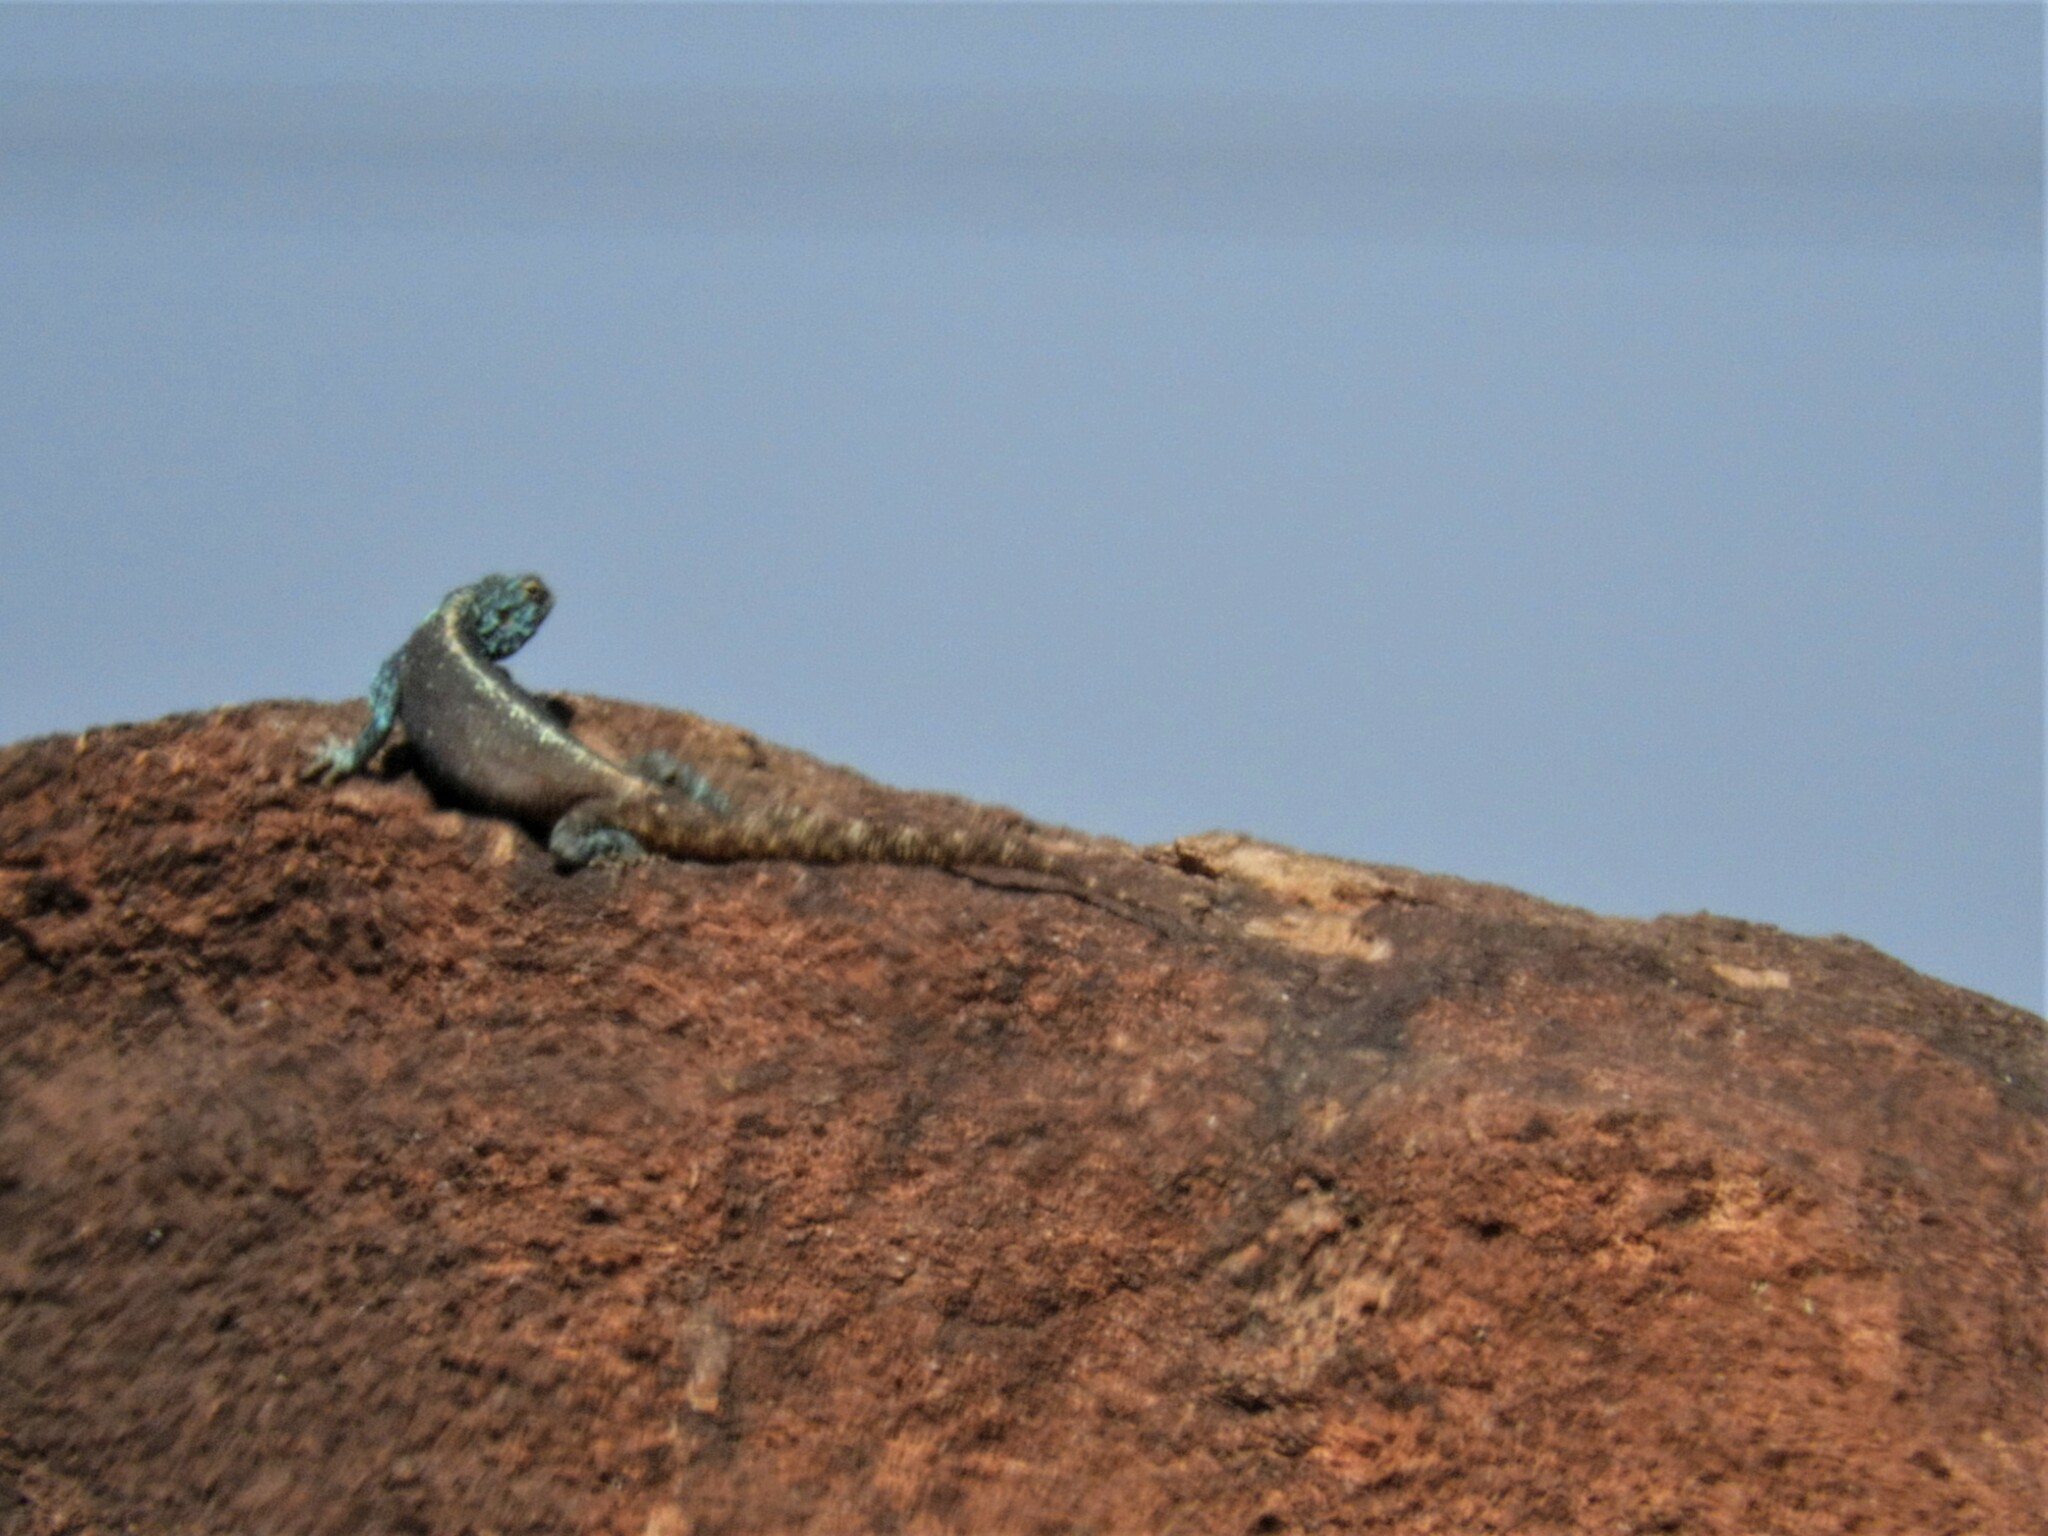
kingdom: Animalia
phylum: Chordata
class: Squamata
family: Agamidae
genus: Agama
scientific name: Agama atra
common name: Southern african rock agama
